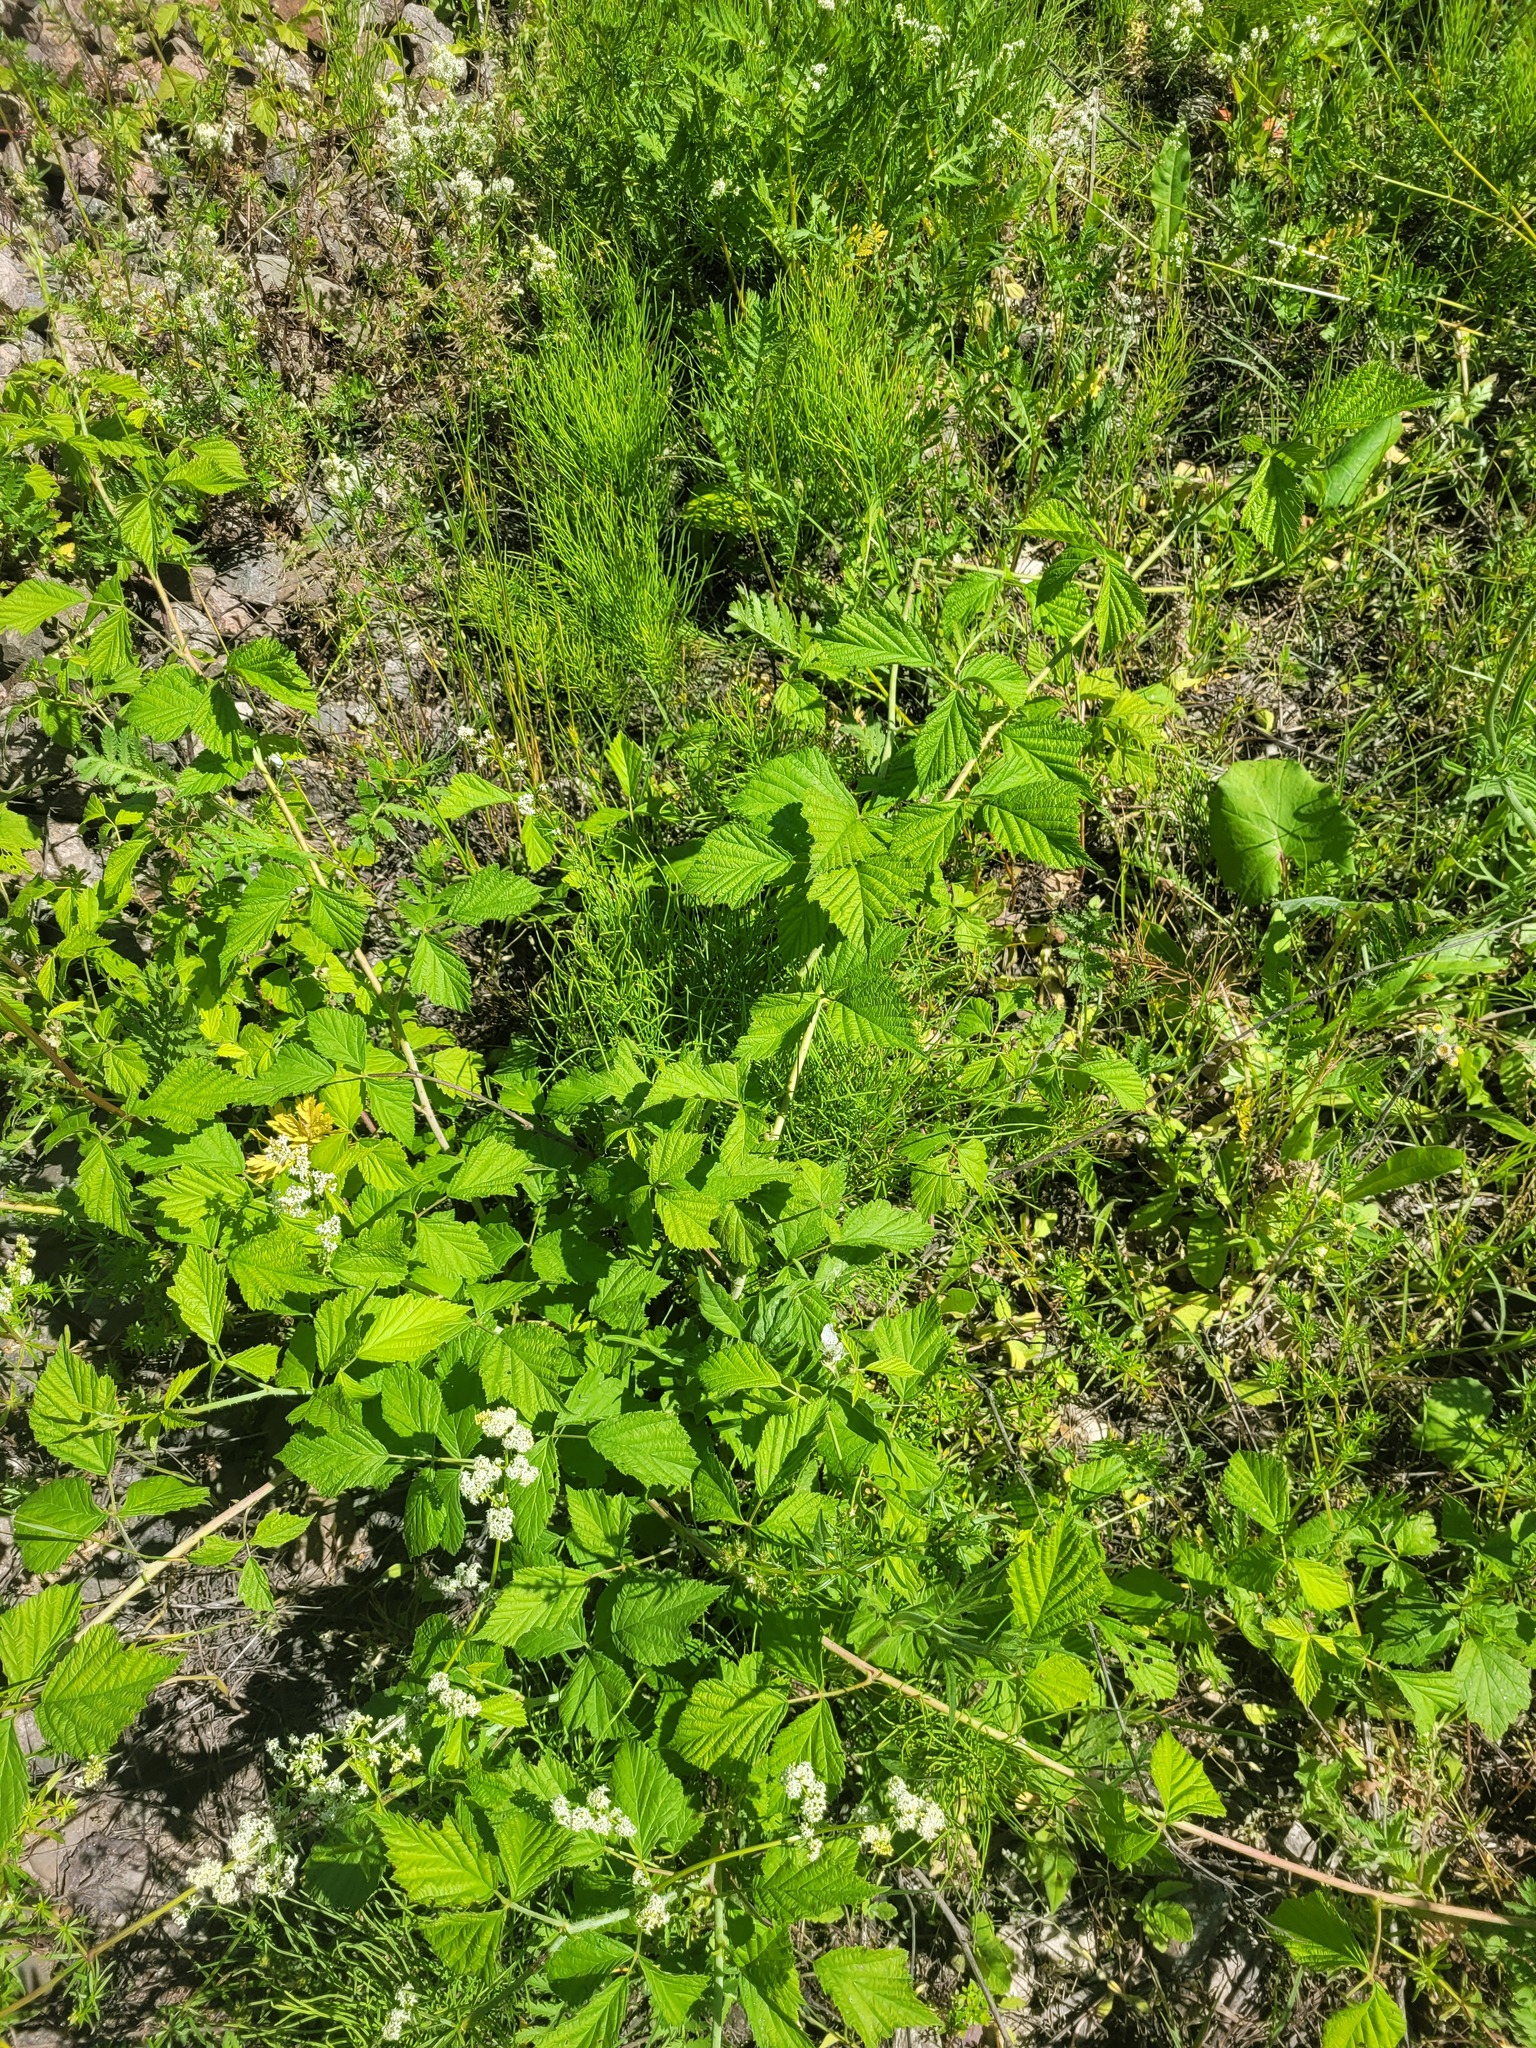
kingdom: Plantae
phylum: Tracheophyta
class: Magnoliopsida
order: Rosales
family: Rosaceae
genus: Rubus
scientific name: Rubus caesius
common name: Dewberry
